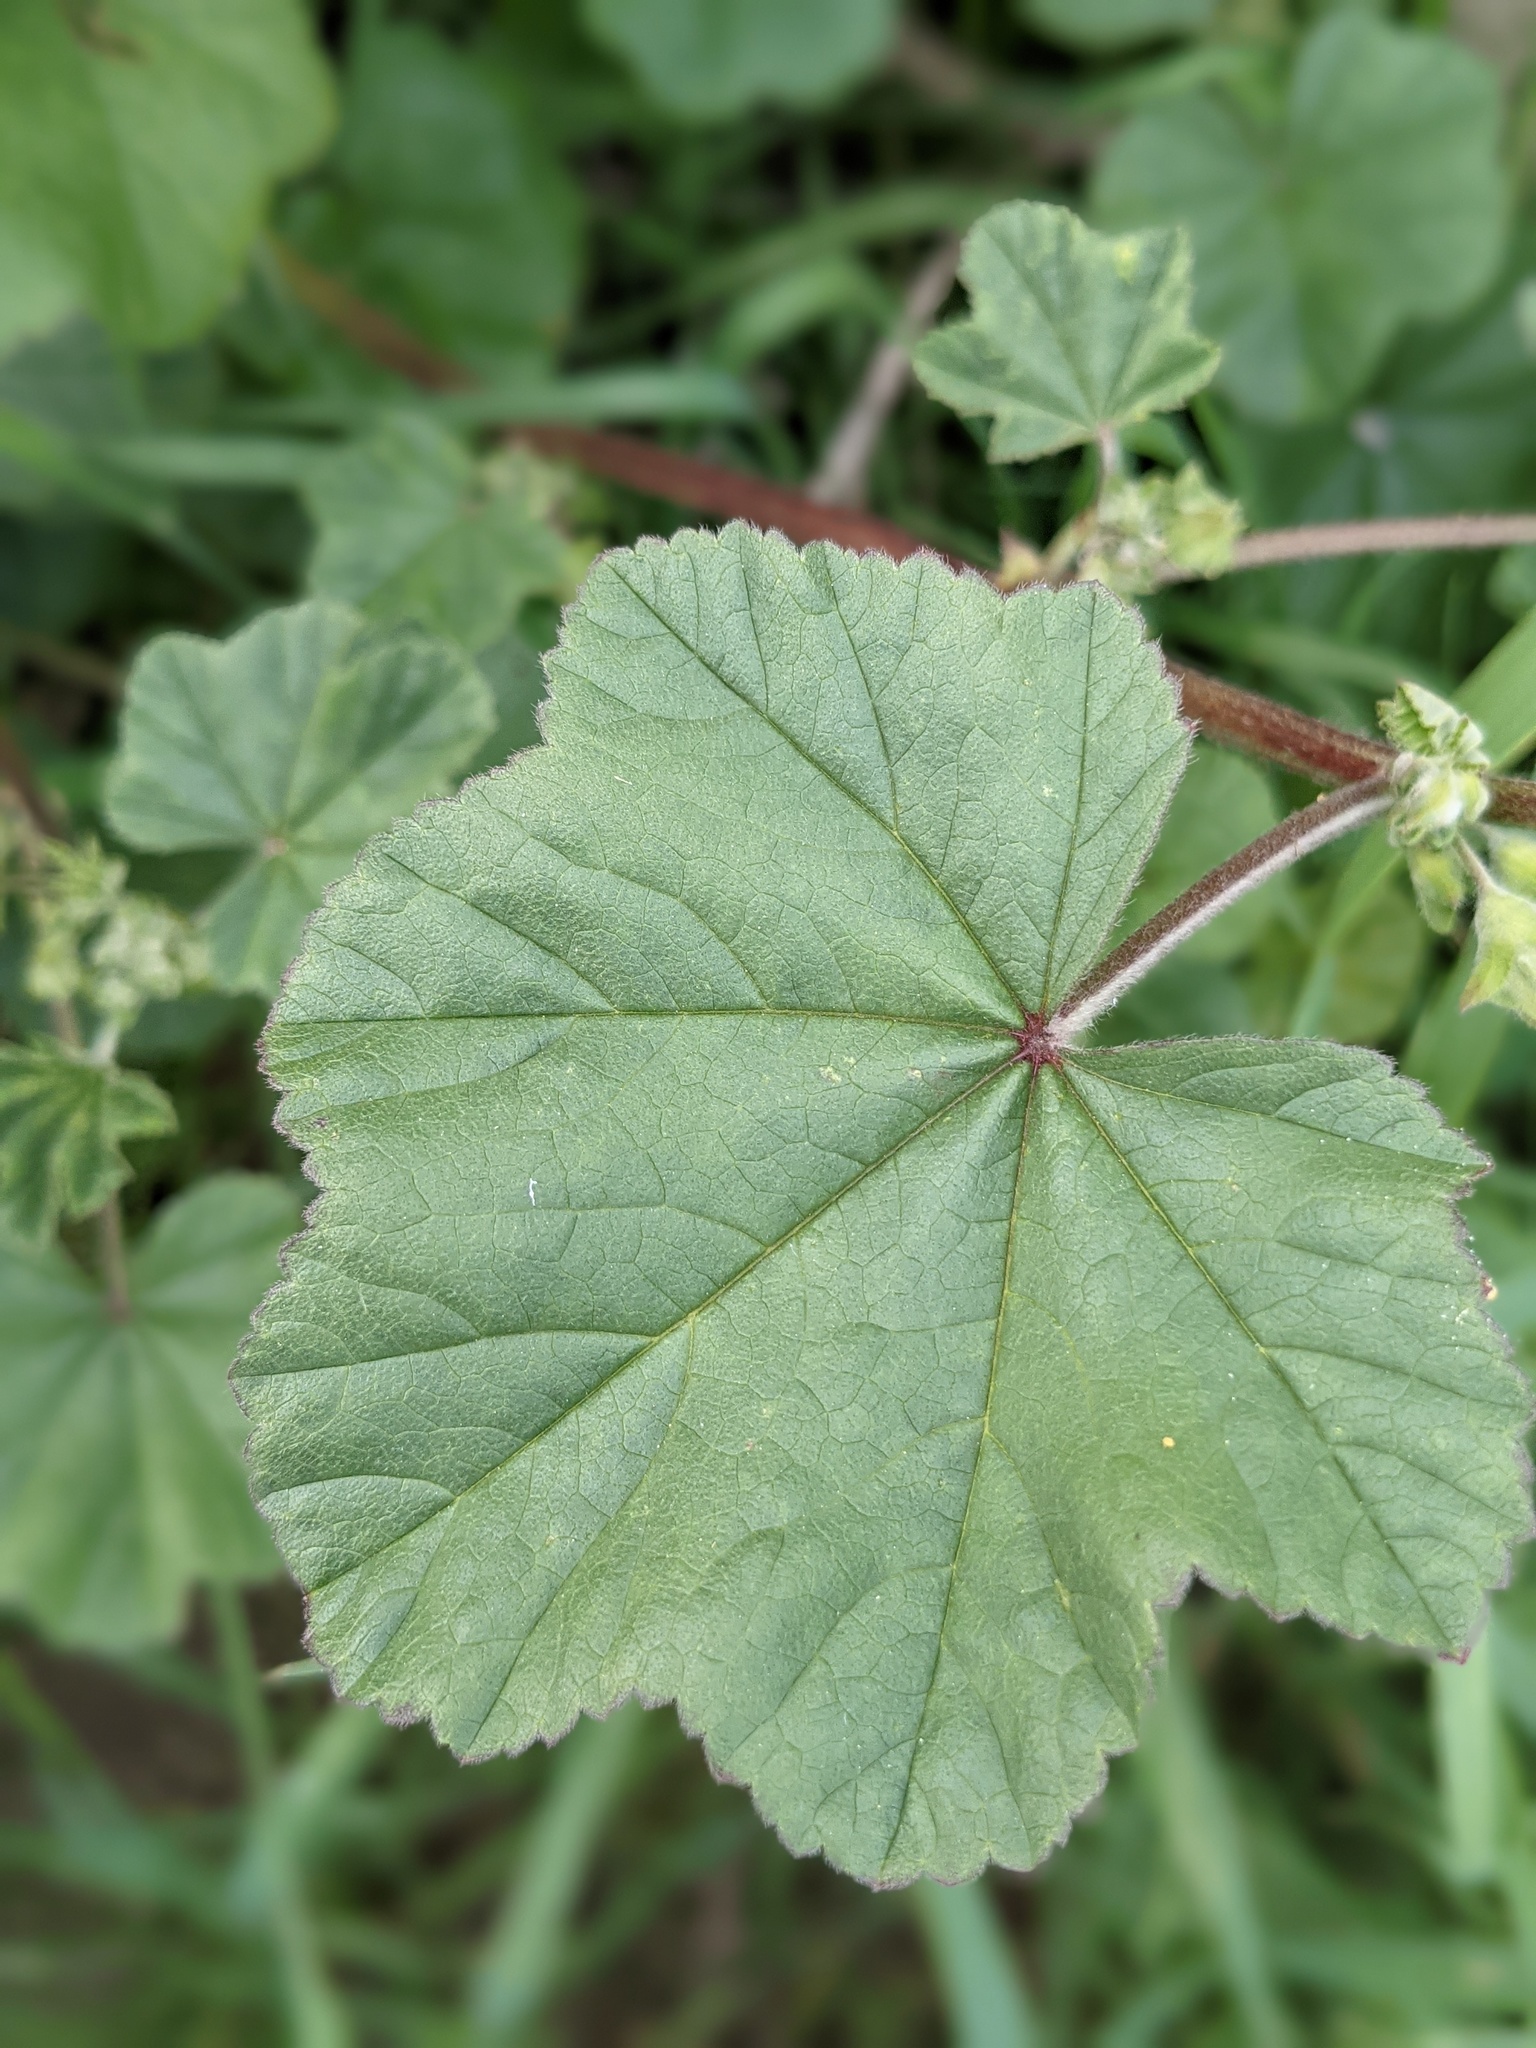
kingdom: Plantae
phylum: Tracheophyta
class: Magnoliopsida
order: Malvales
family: Malvaceae
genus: Malva
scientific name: Malva multiflora
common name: Cheeseweed
